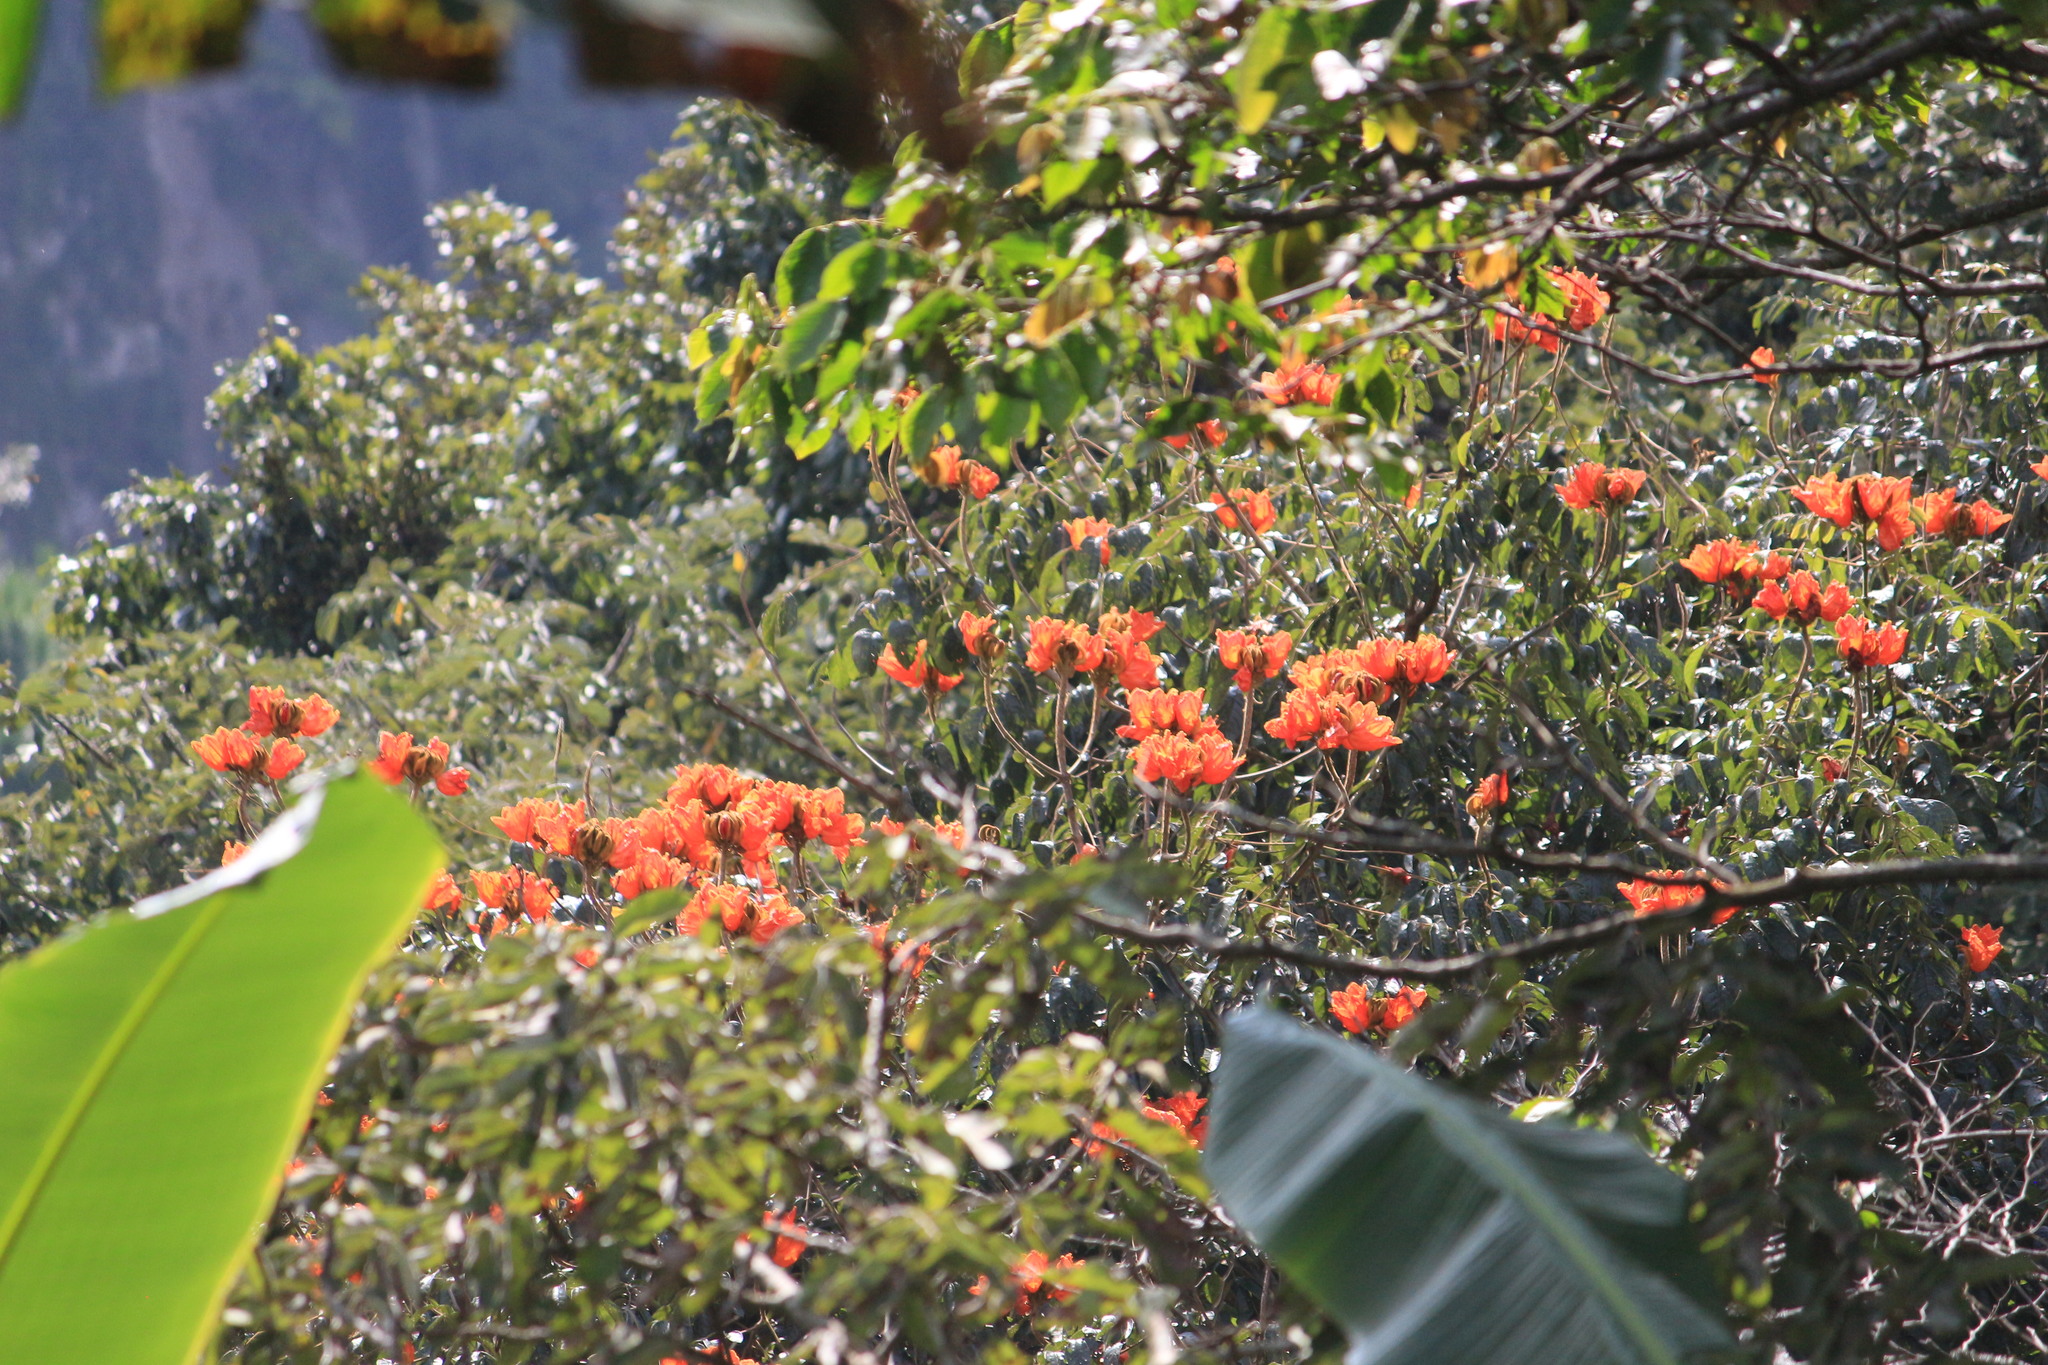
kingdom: Plantae
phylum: Tracheophyta
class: Magnoliopsida
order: Lamiales
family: Bignoniaceae
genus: Spathodea
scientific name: Spathodea campanulata
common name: African tuliptree
